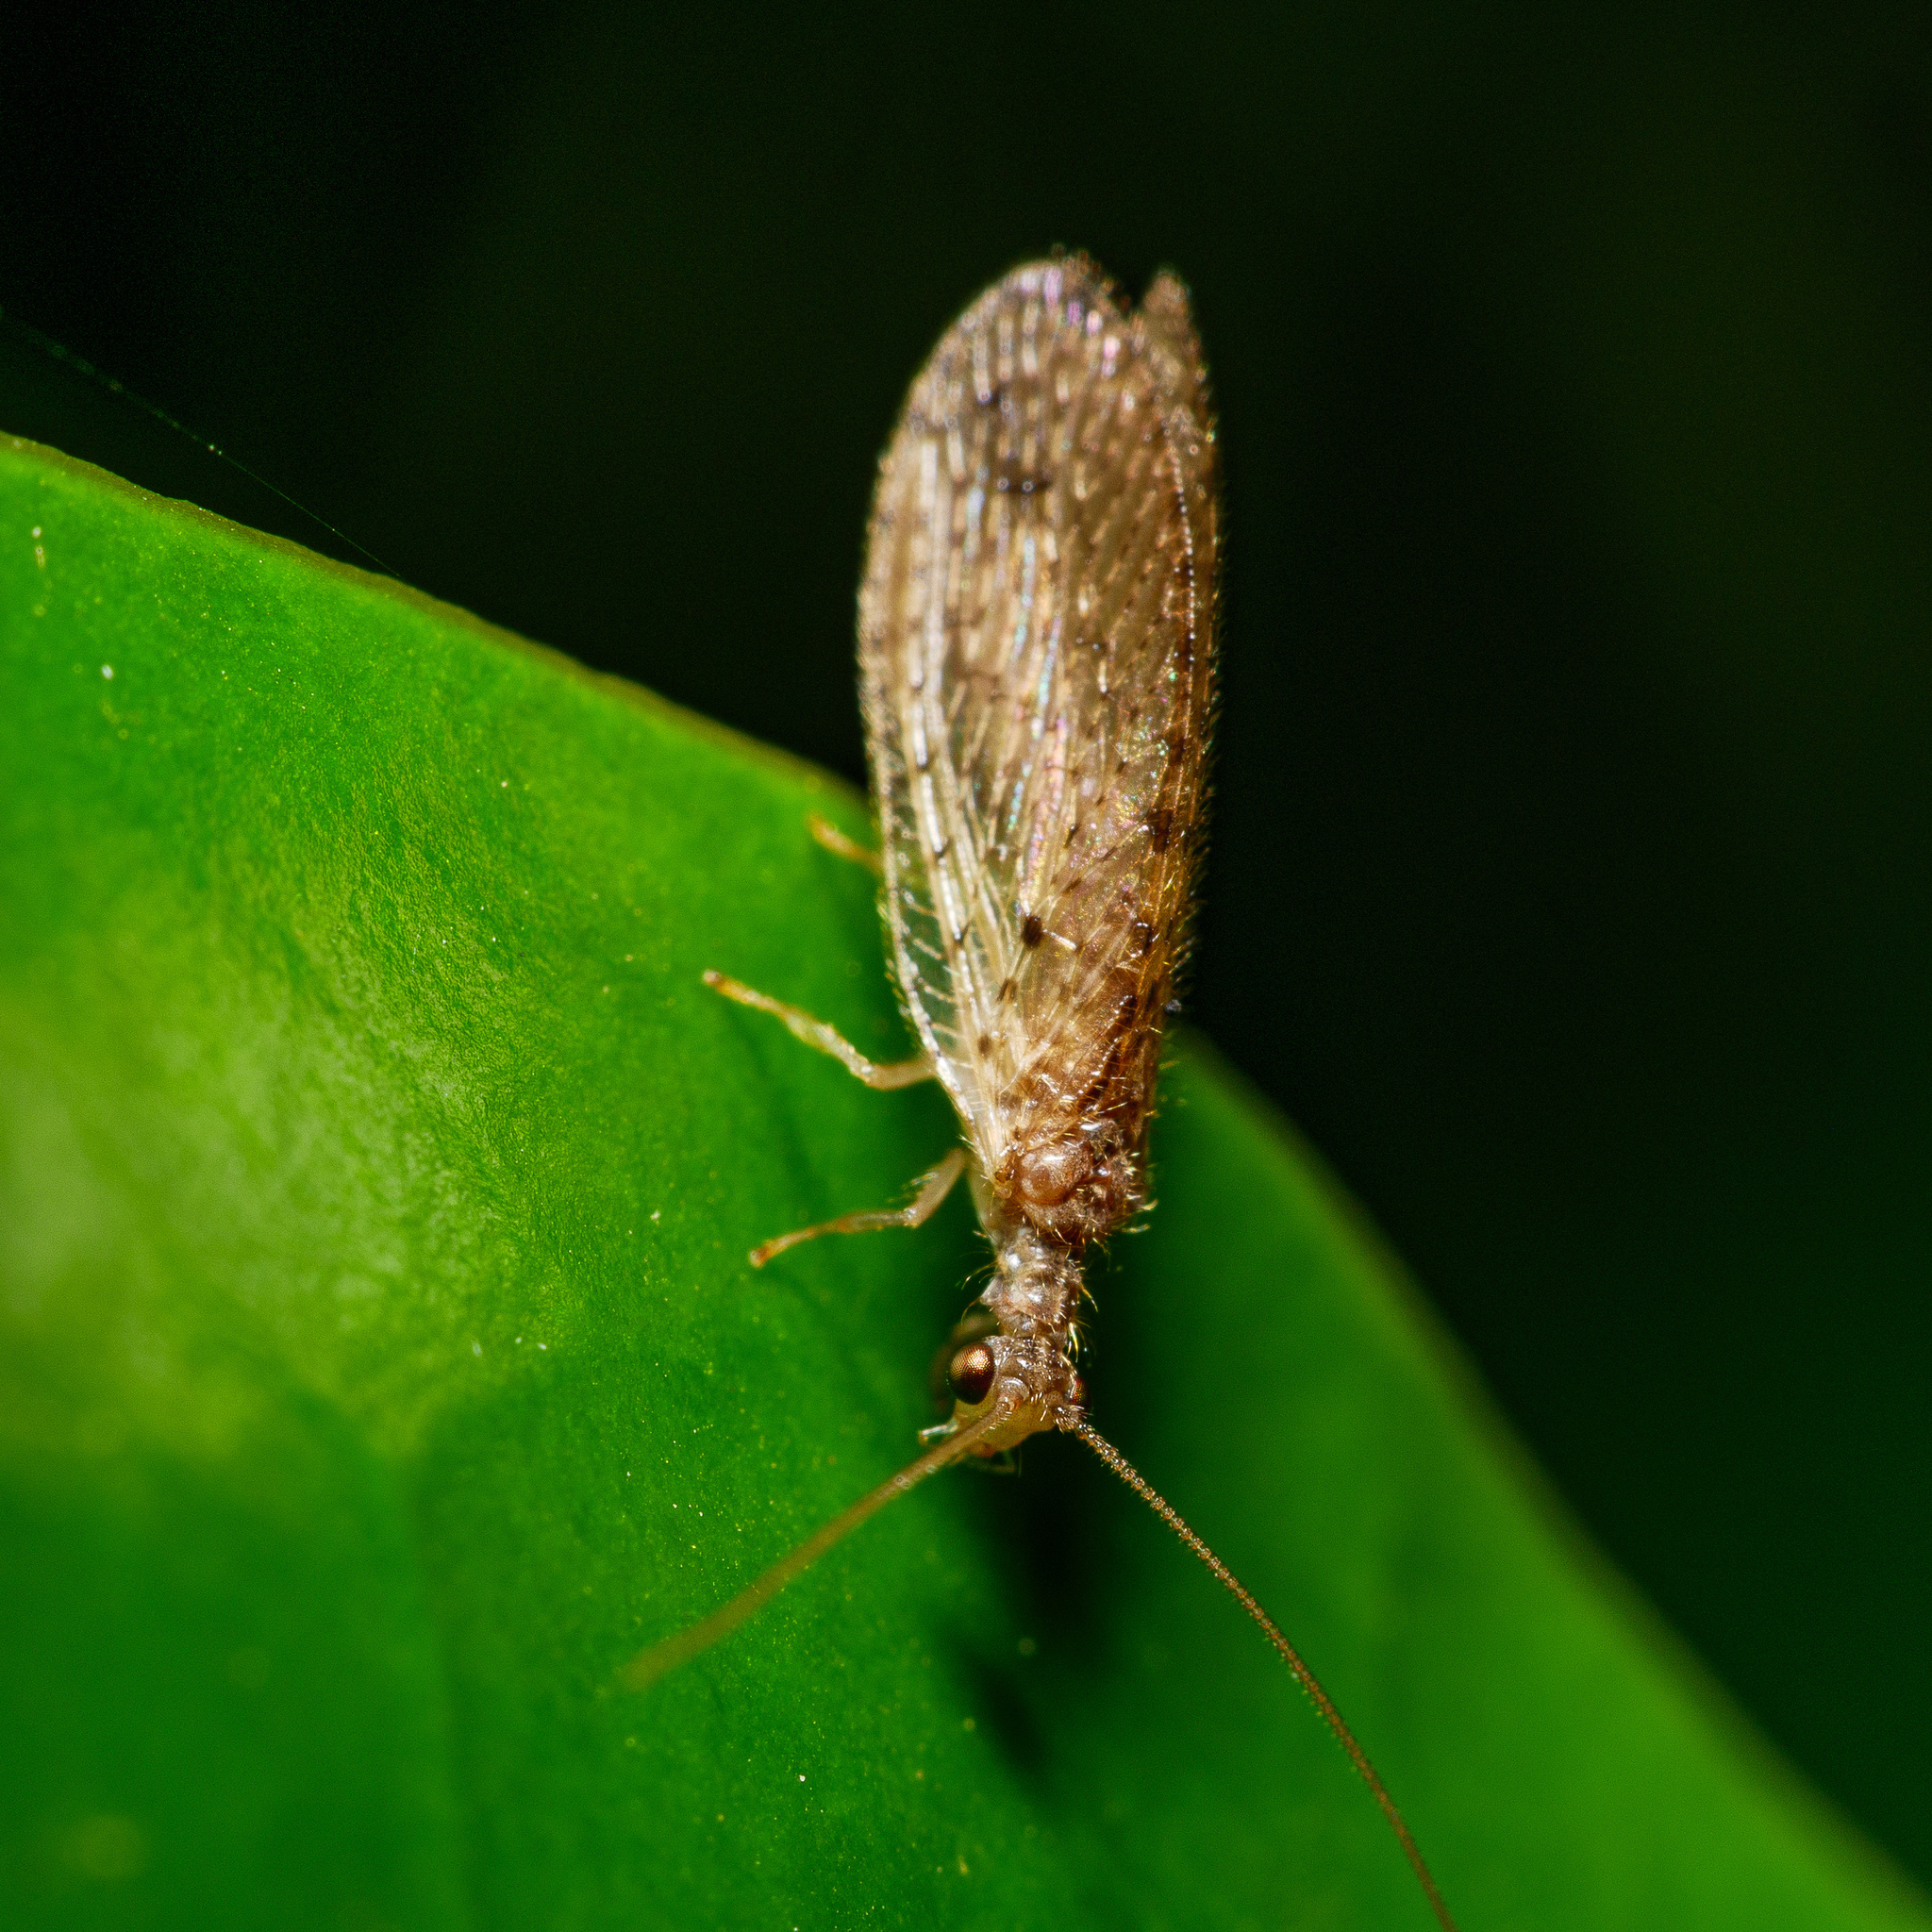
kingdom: Animalia
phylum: Arthropoda
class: Insecta
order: Neuroptera
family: Hemerobiidae
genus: Micromus
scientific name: Micromus tasmaniae
